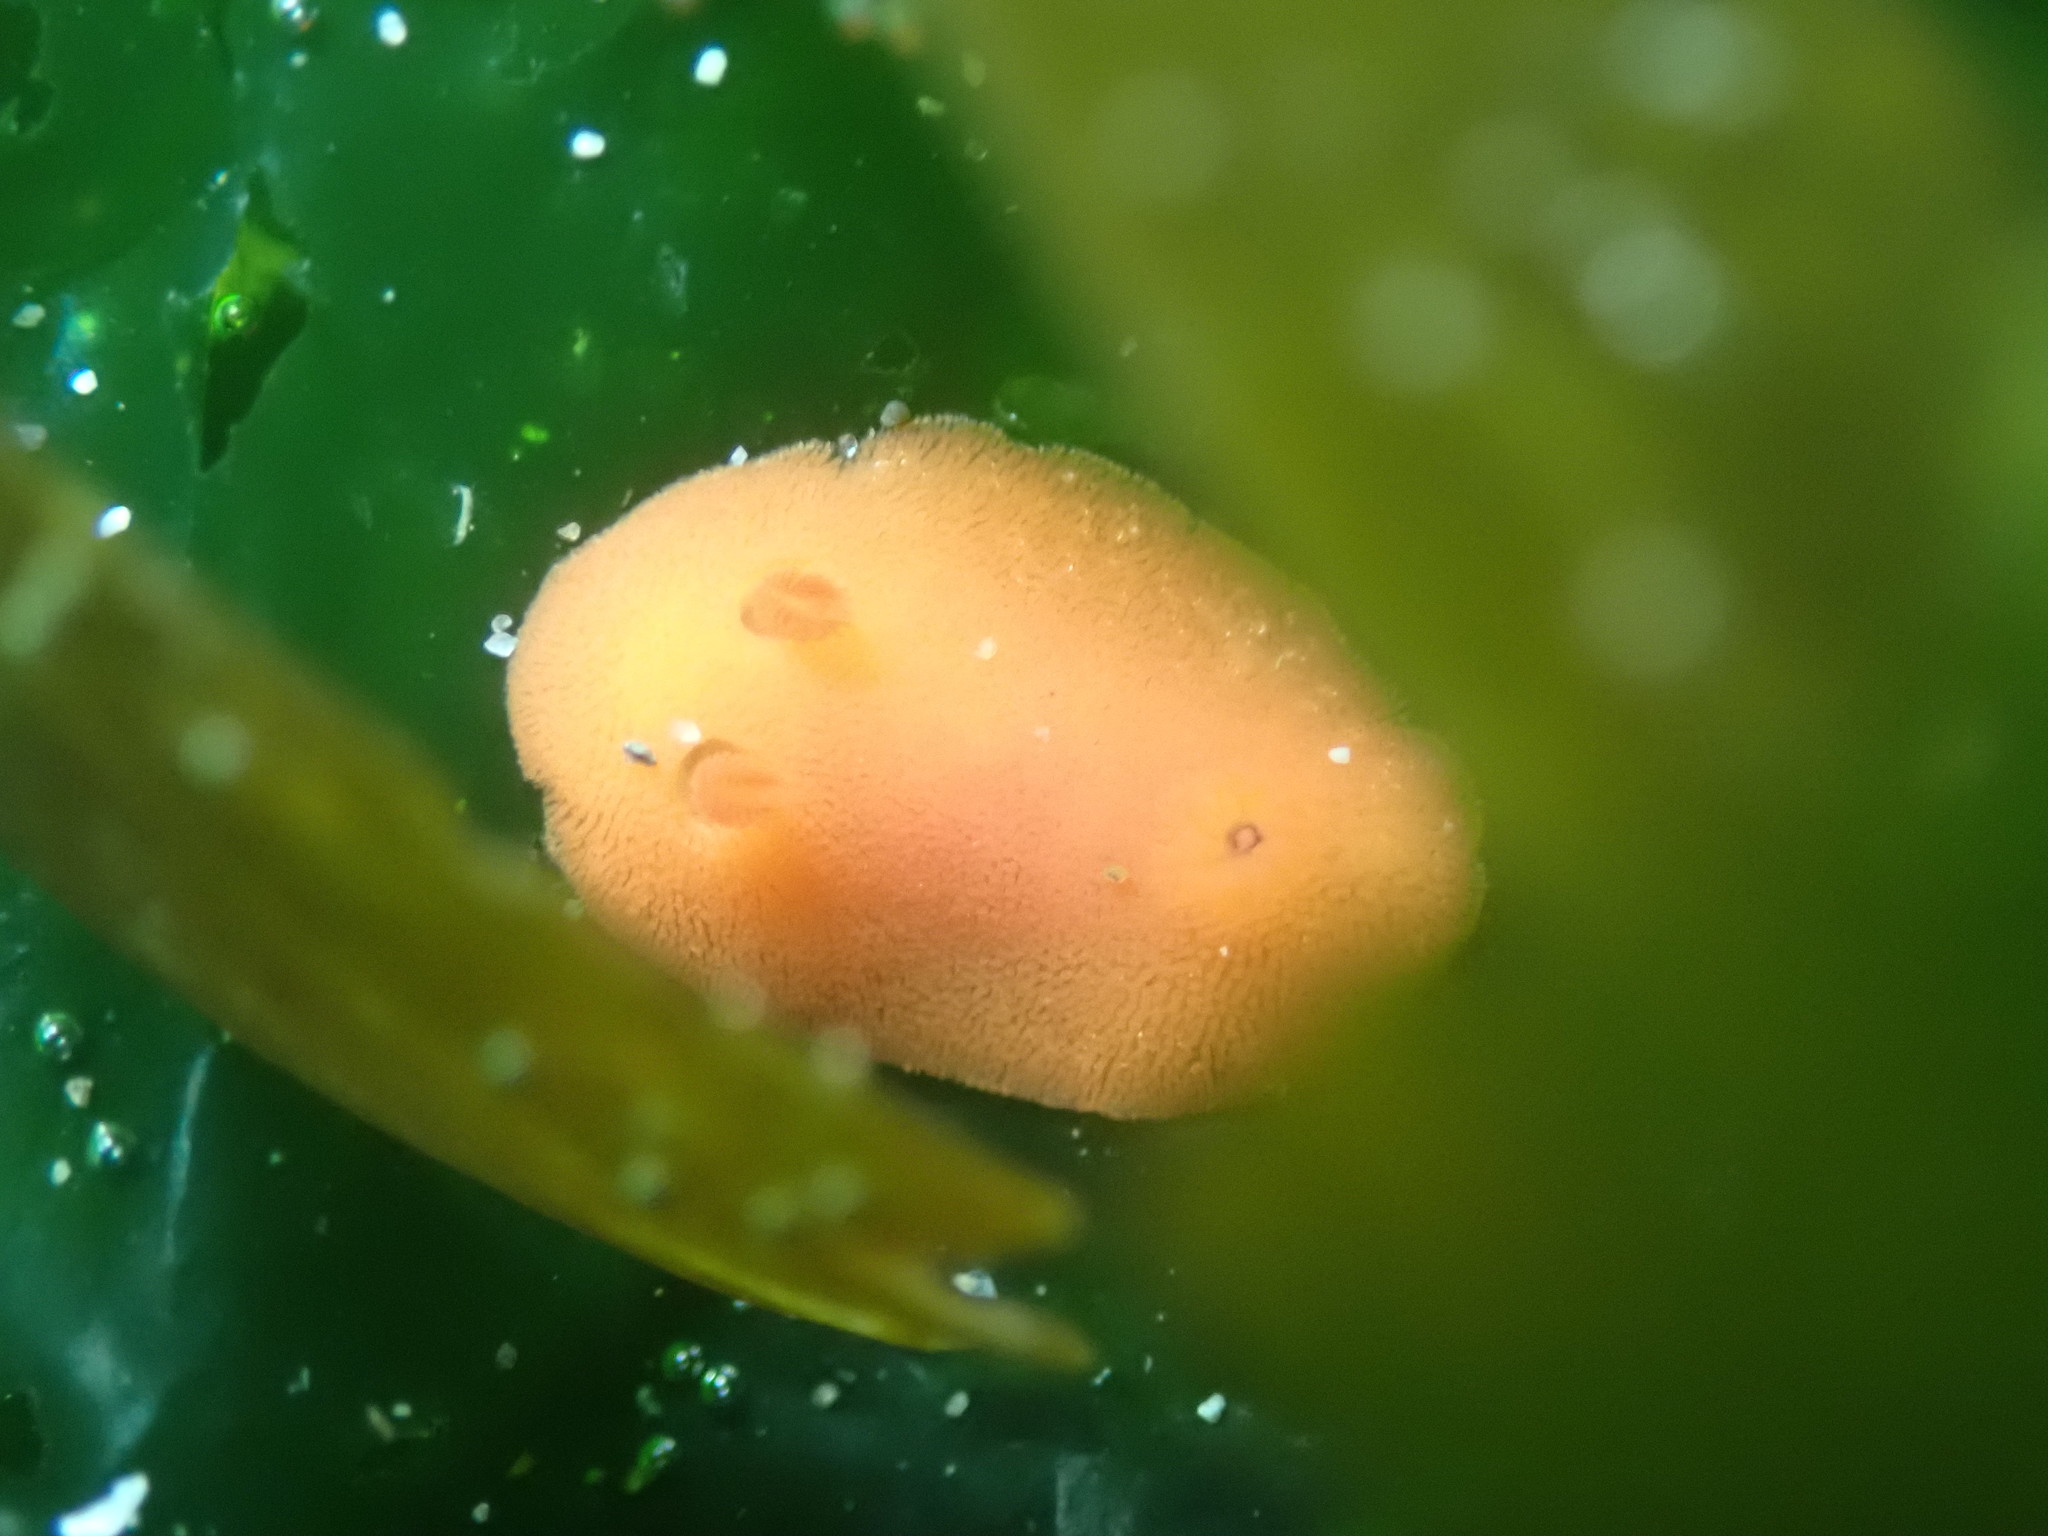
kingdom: Animalia
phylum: Mollusca
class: Gastropoda
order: Nudibranchia
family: Discodorididae
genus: Rostanga
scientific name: Rostanga pulchra
